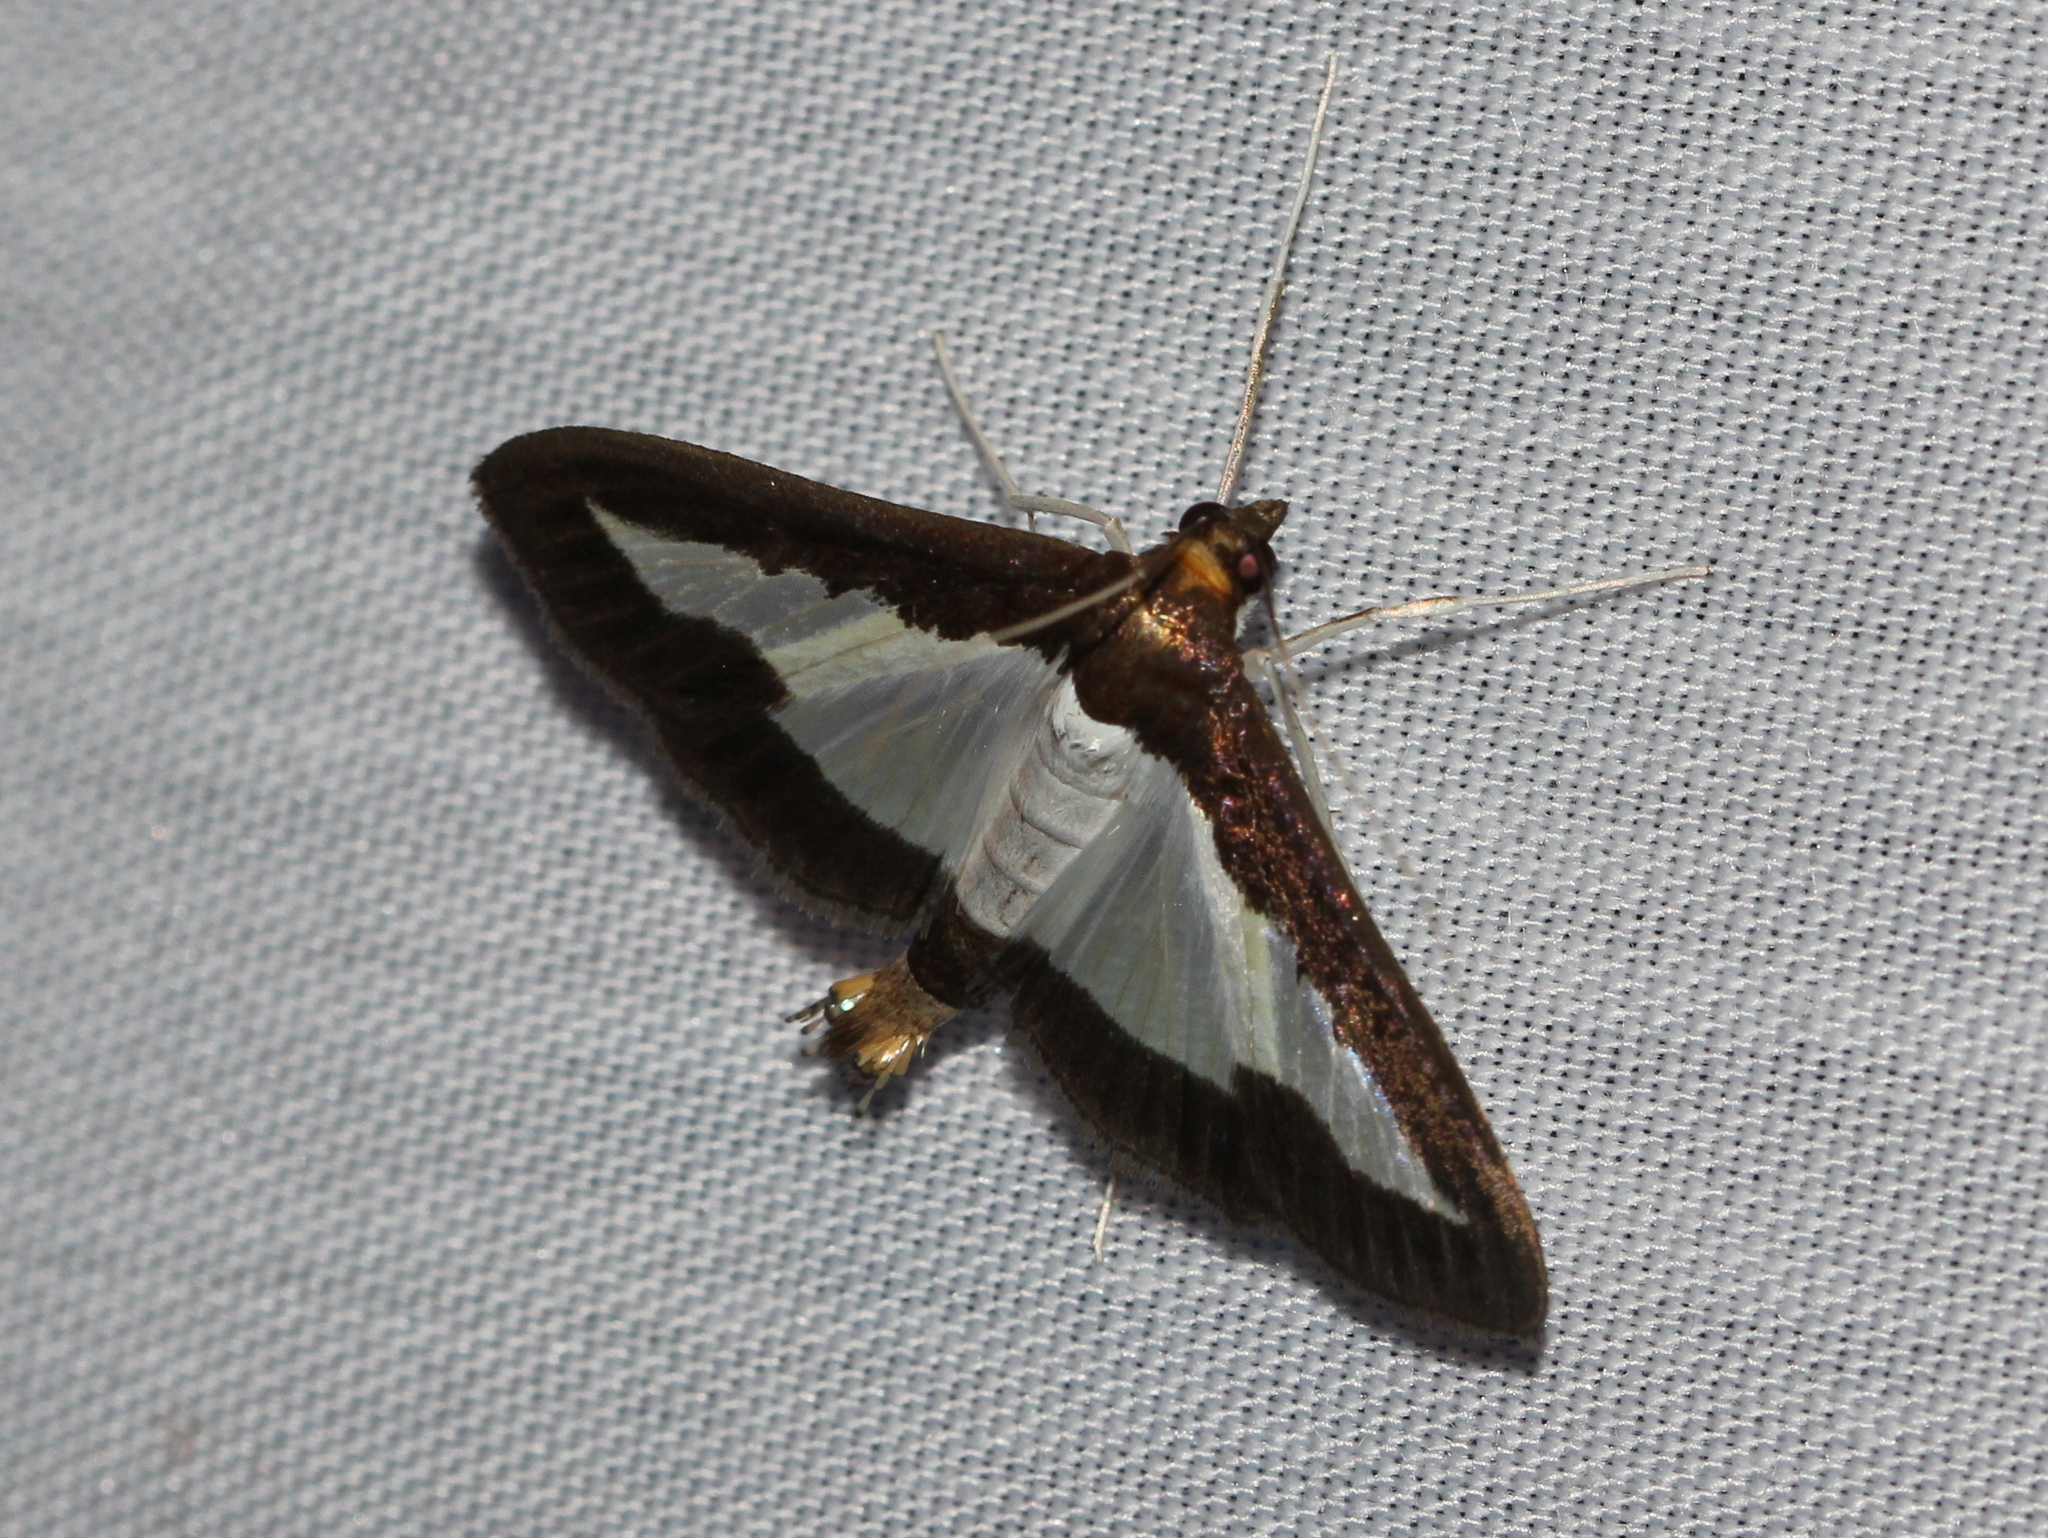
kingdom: Animalia
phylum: Arthropoda
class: Insecta
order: Lepidoptera
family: Crambidae
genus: Diaphania
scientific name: Diaphania indica
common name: Cucumber moth
